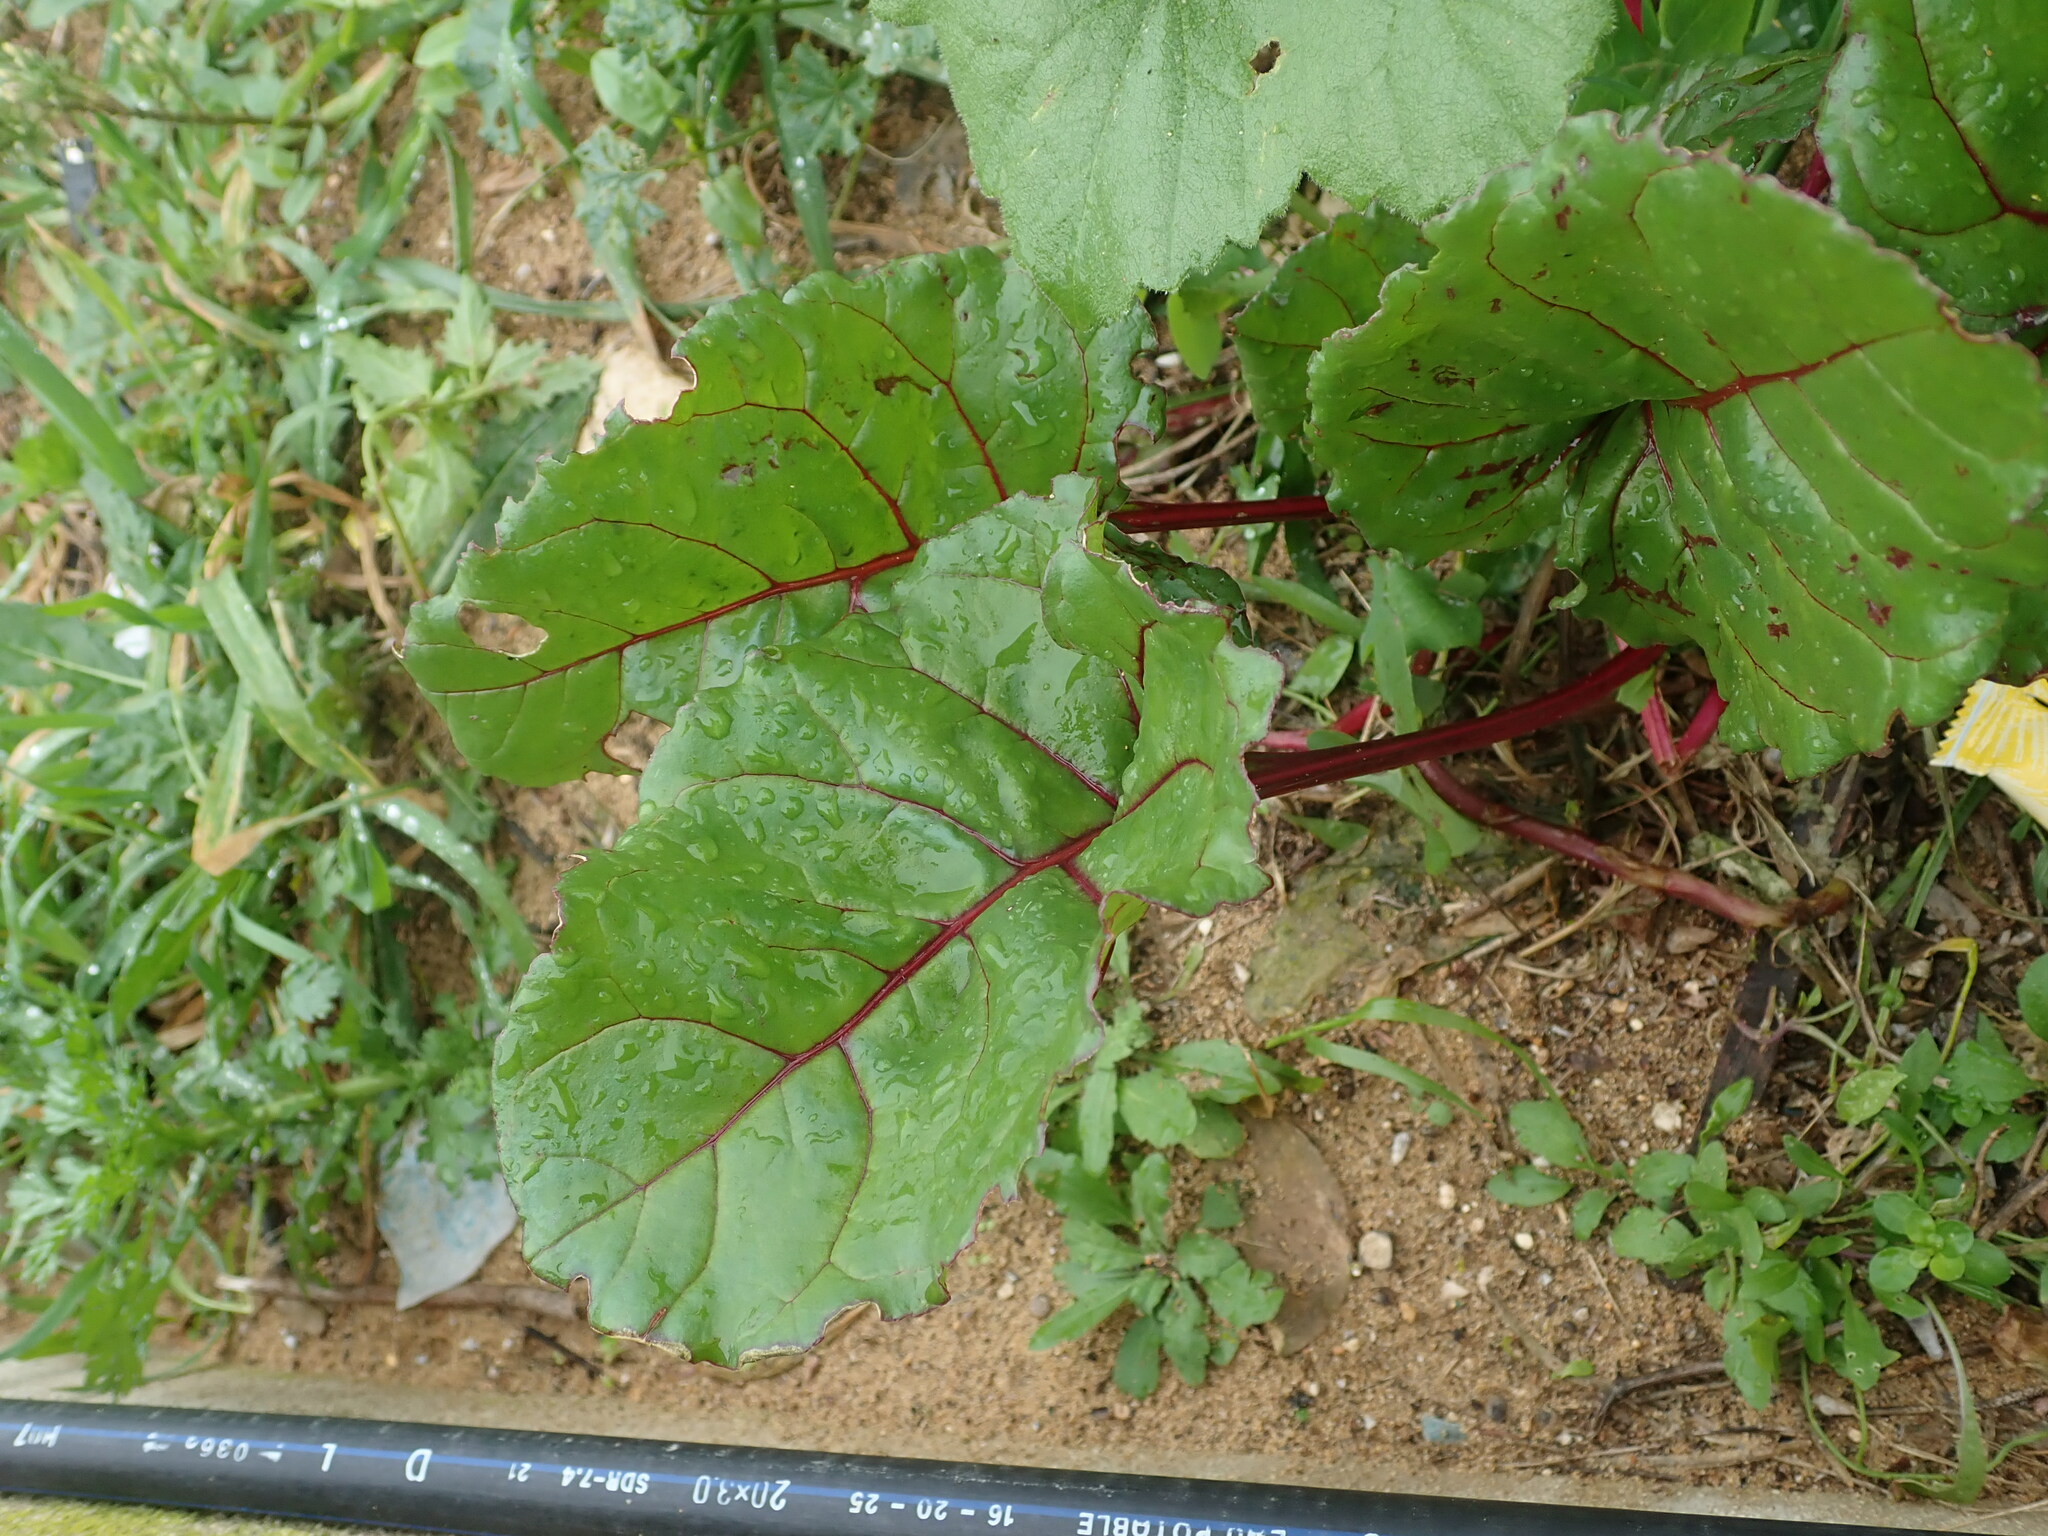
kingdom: Plantae
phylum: Tracheophyta
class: Magnoliopsida
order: Caryophyllales
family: Amaranthaceae
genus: Beta
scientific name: Beta vulgaris
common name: Beet
